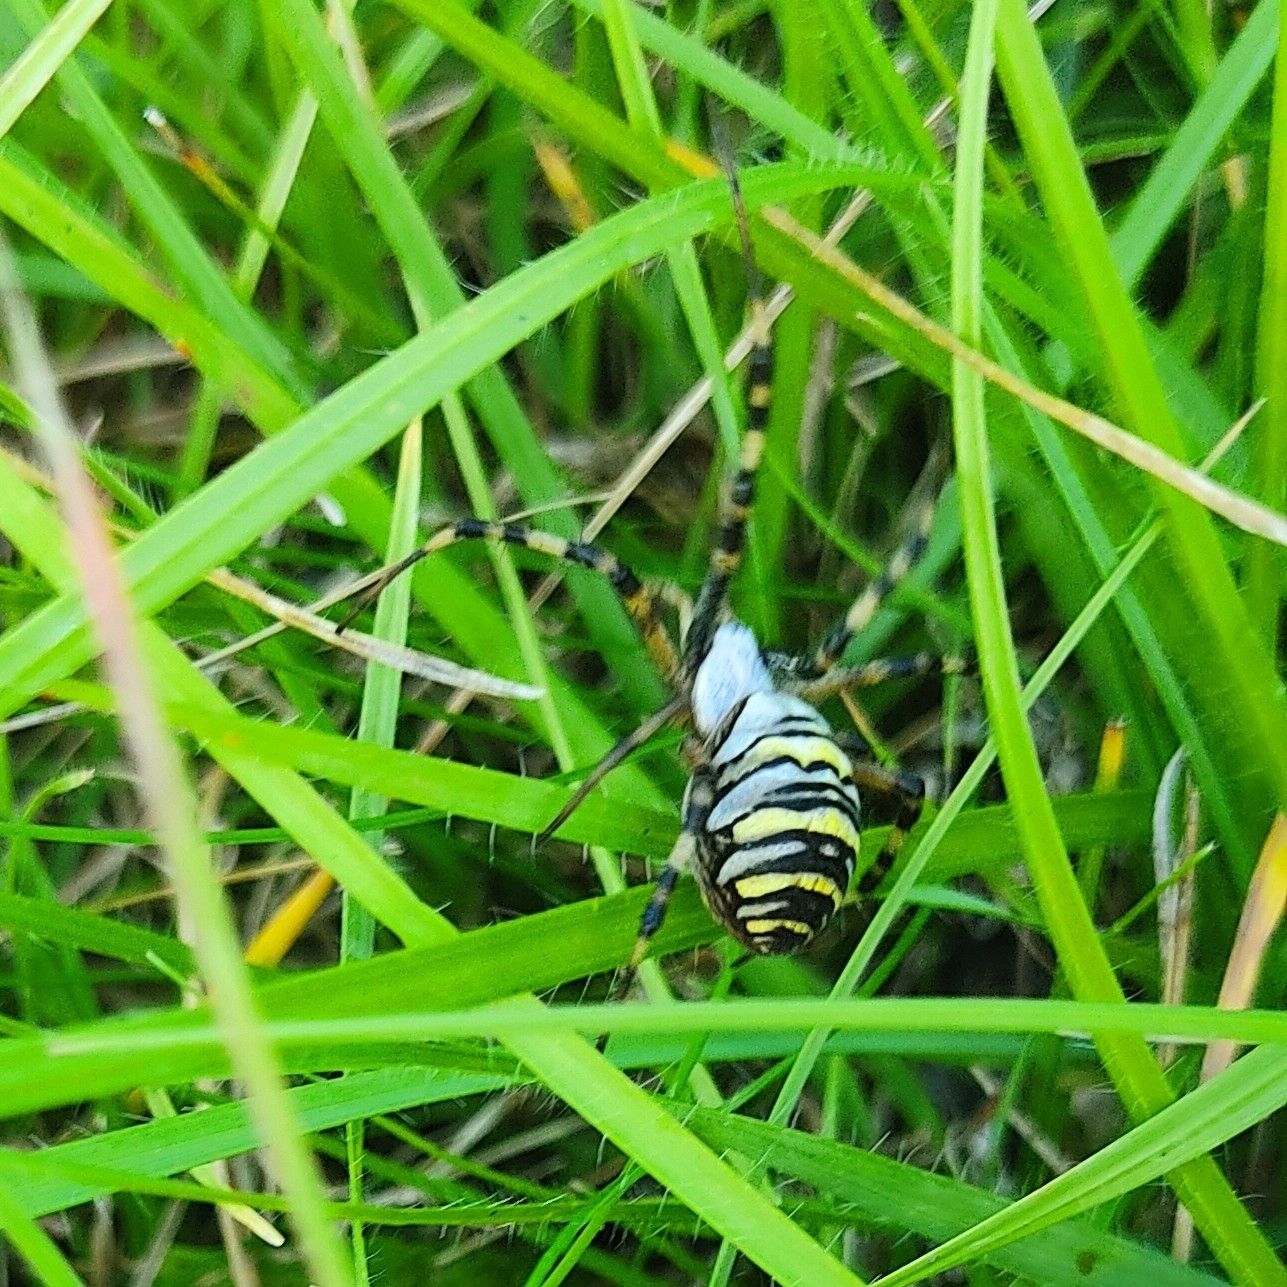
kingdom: Animalia
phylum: Arthropoda
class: Arachnida
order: Araneae
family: Araneidae
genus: Argiope
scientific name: Argiope bruennichi
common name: Wasp spider
